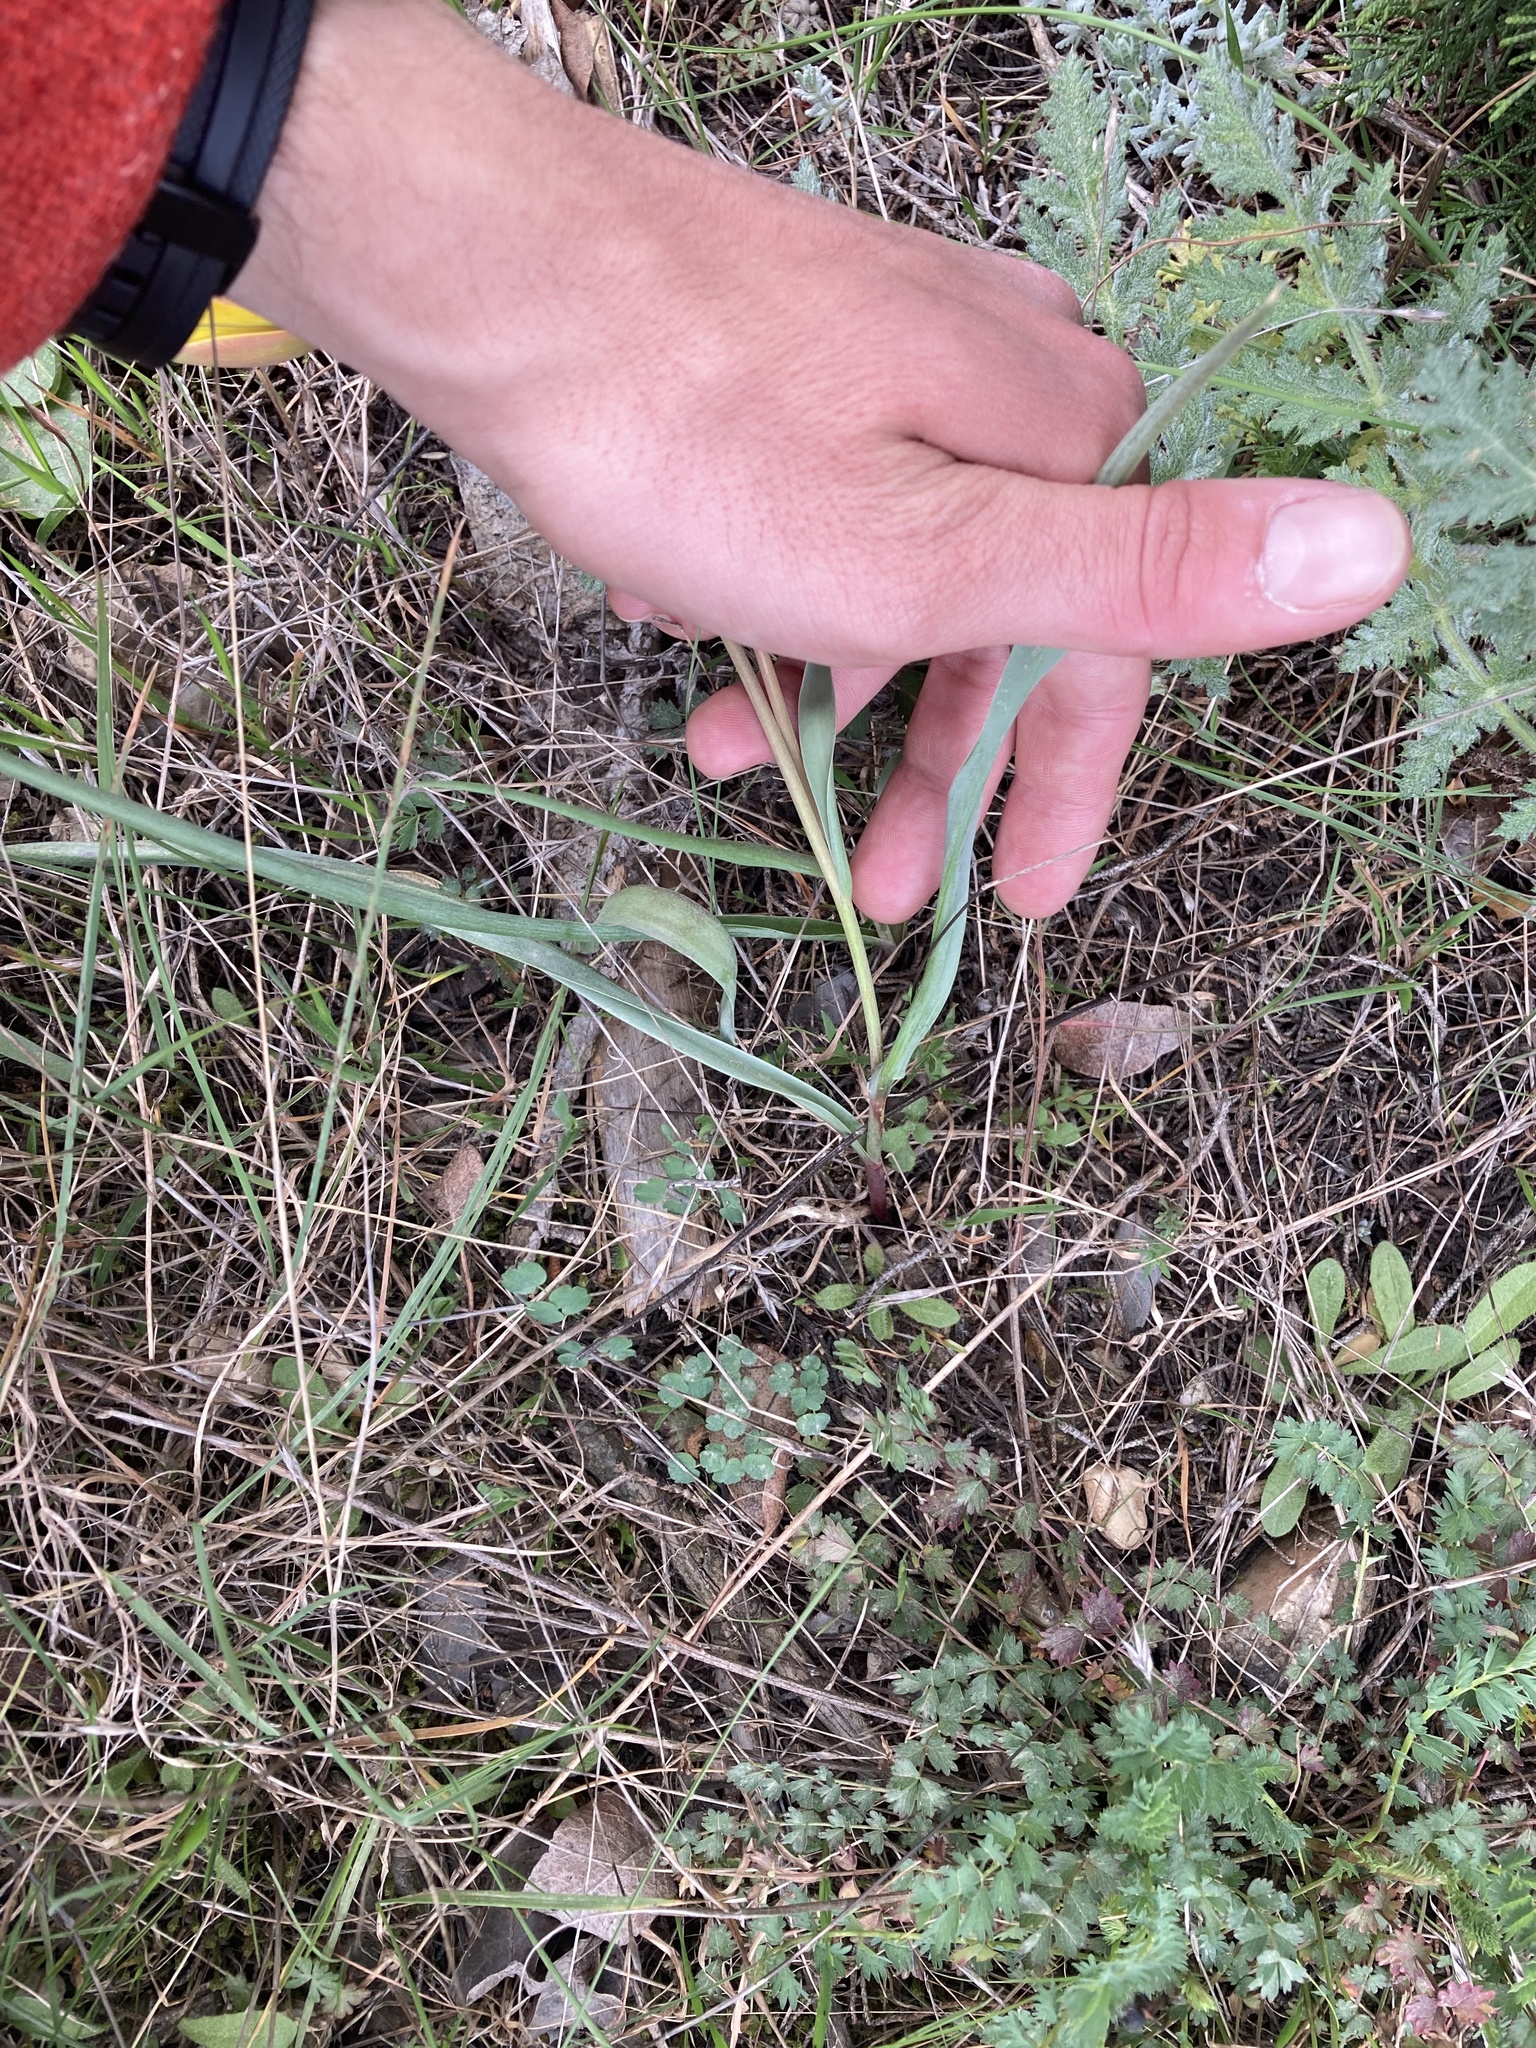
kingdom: Plantae
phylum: Tracheophyta
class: Liliopsida
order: Liliales
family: Liliaceae
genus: Tulipa
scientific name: Tulipa sylvestris
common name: Wild tulip
